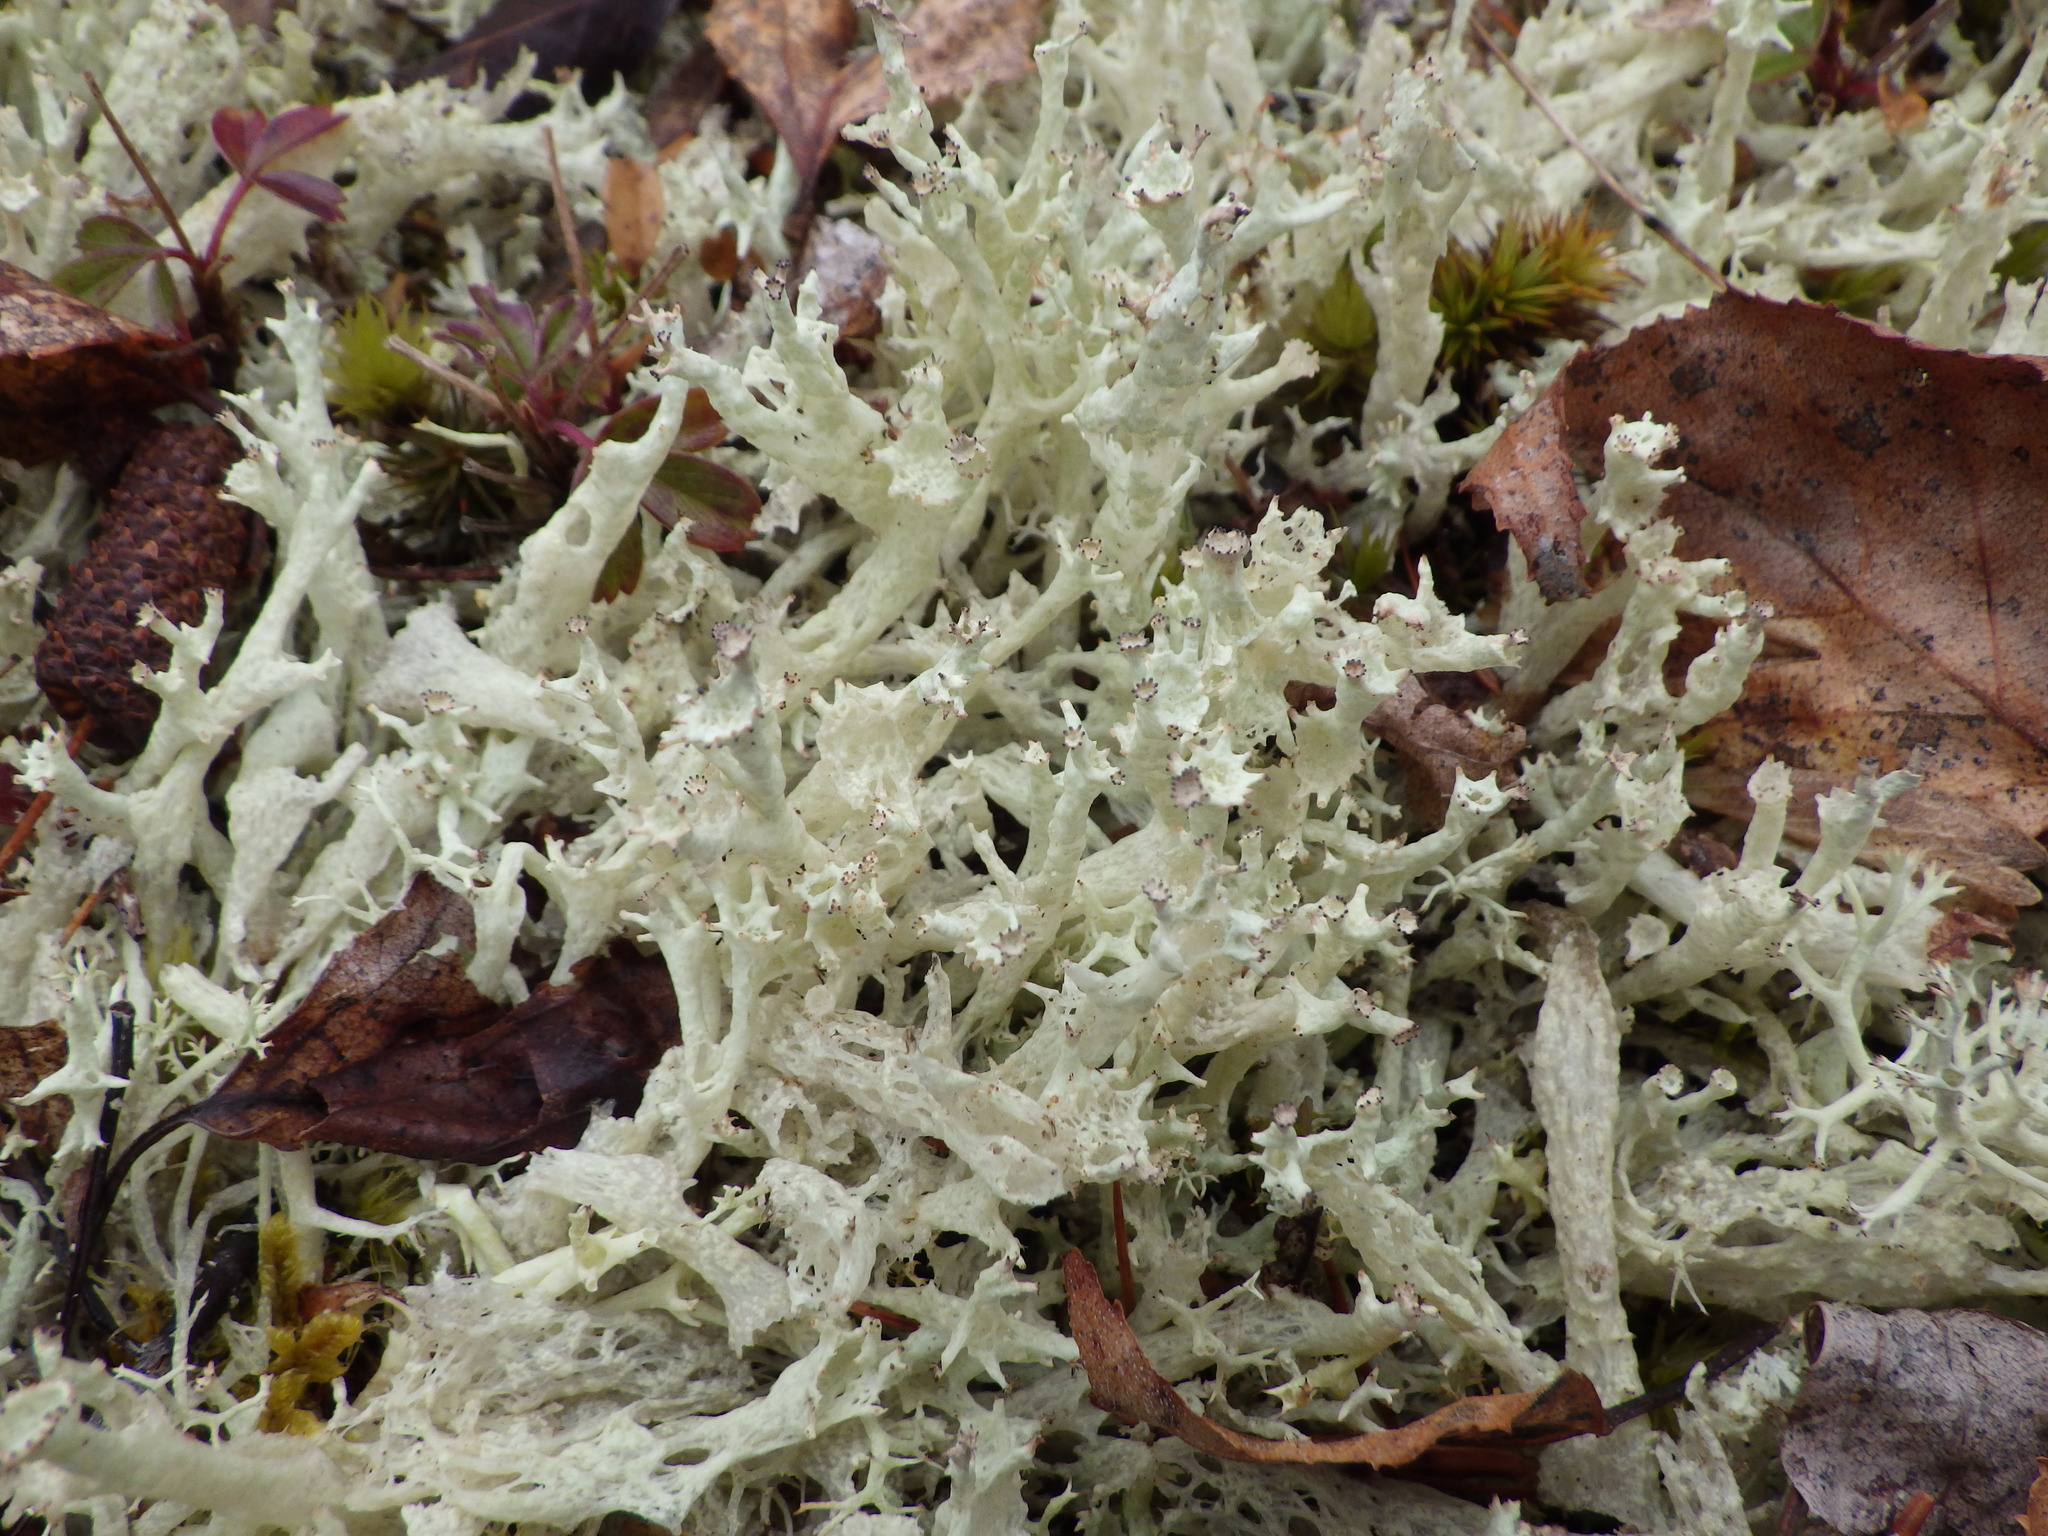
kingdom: Fungi
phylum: Ascomycota
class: Lecanoromycetes
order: Lecanorales
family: Cladoniaceae
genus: Cladonia
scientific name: Cladonia boryi
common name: Fishnet cladonia
